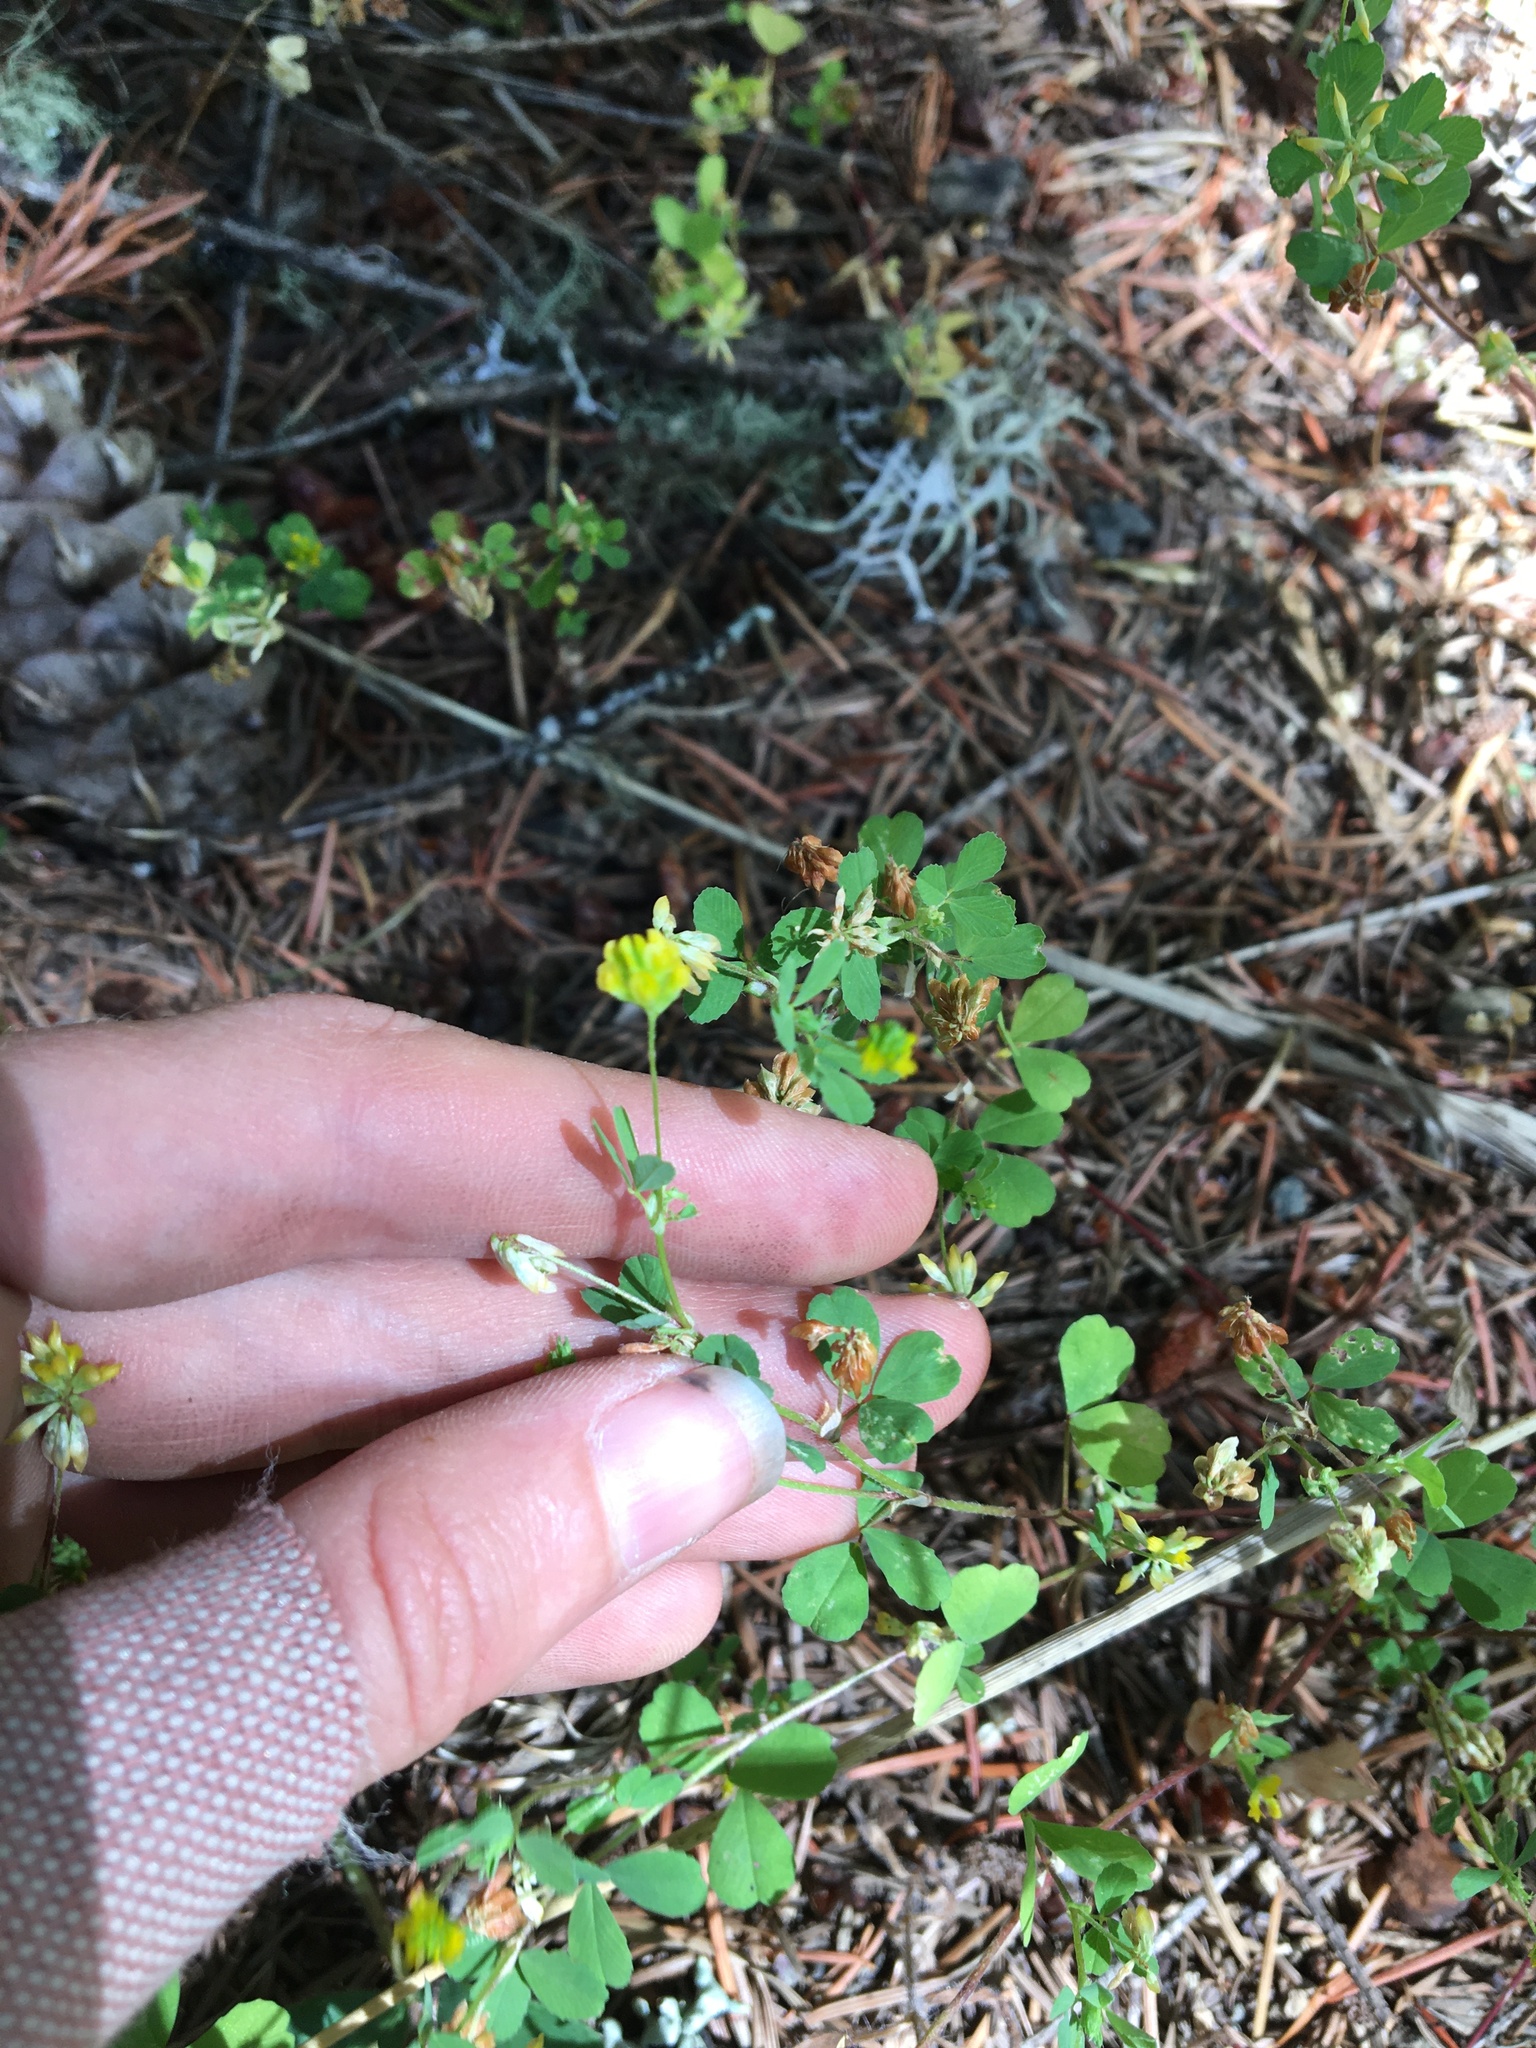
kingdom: Plantae
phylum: Tracheophyta
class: Magnoliopsida
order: Fabales
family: Fabaceae
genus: Trifolium
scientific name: Trifolium dubium
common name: Suckling clover
